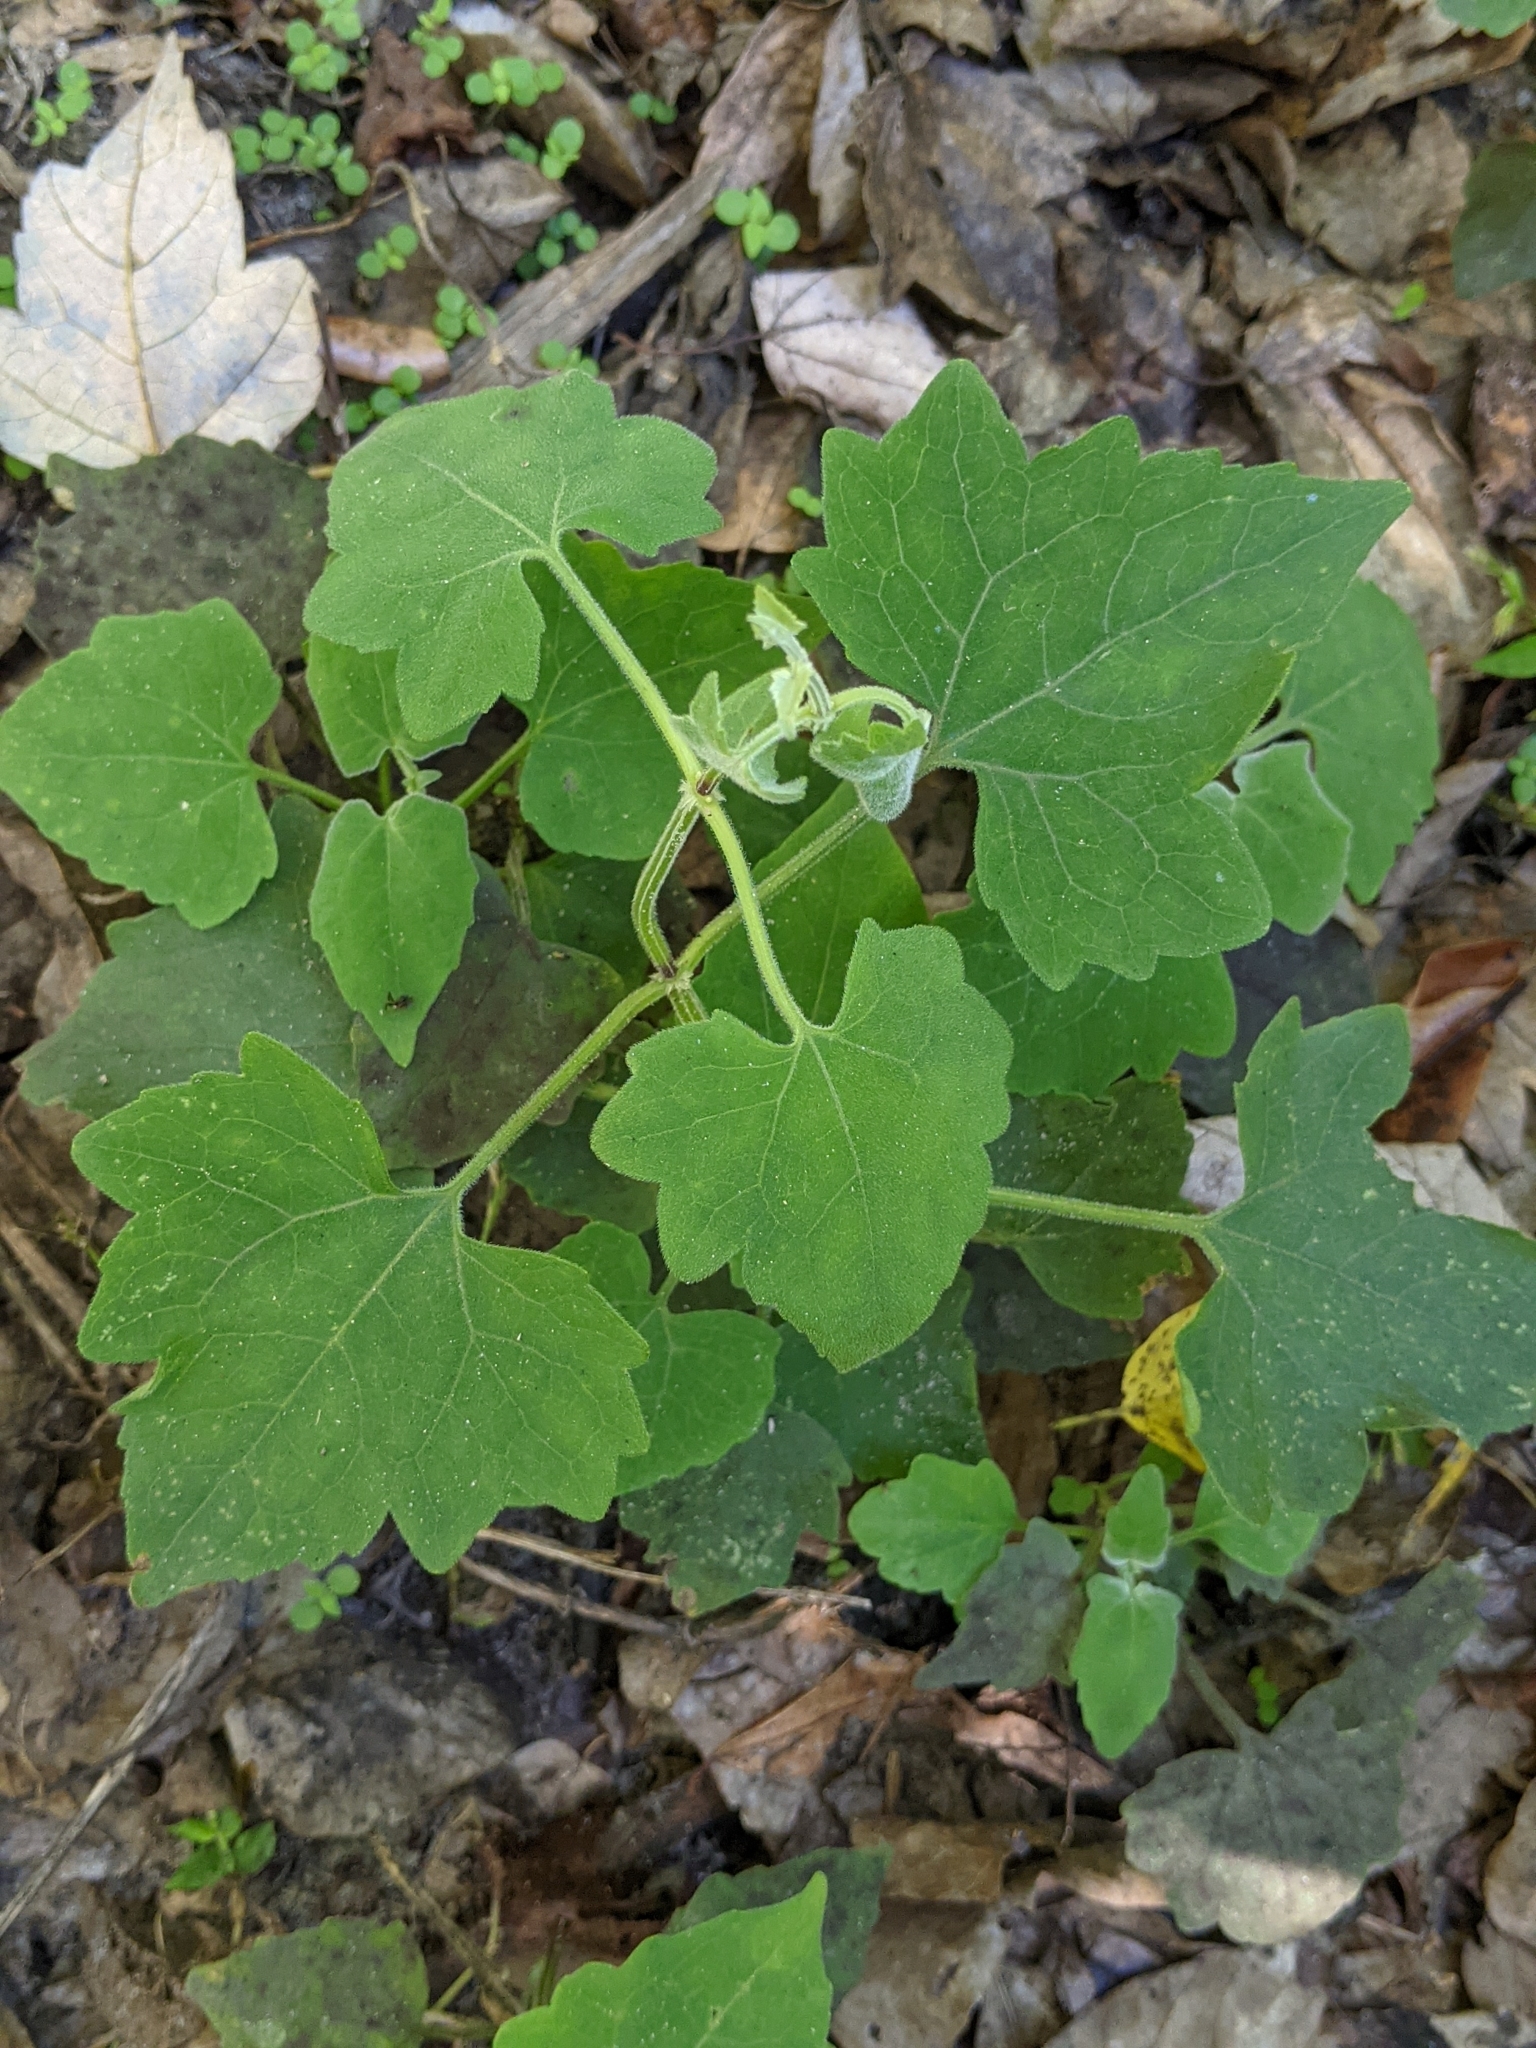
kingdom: Plantae
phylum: Tracheophyta
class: Magnoliopsida
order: Asterales
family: Asteraceae
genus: Mikania
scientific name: Mikania cordifolia
